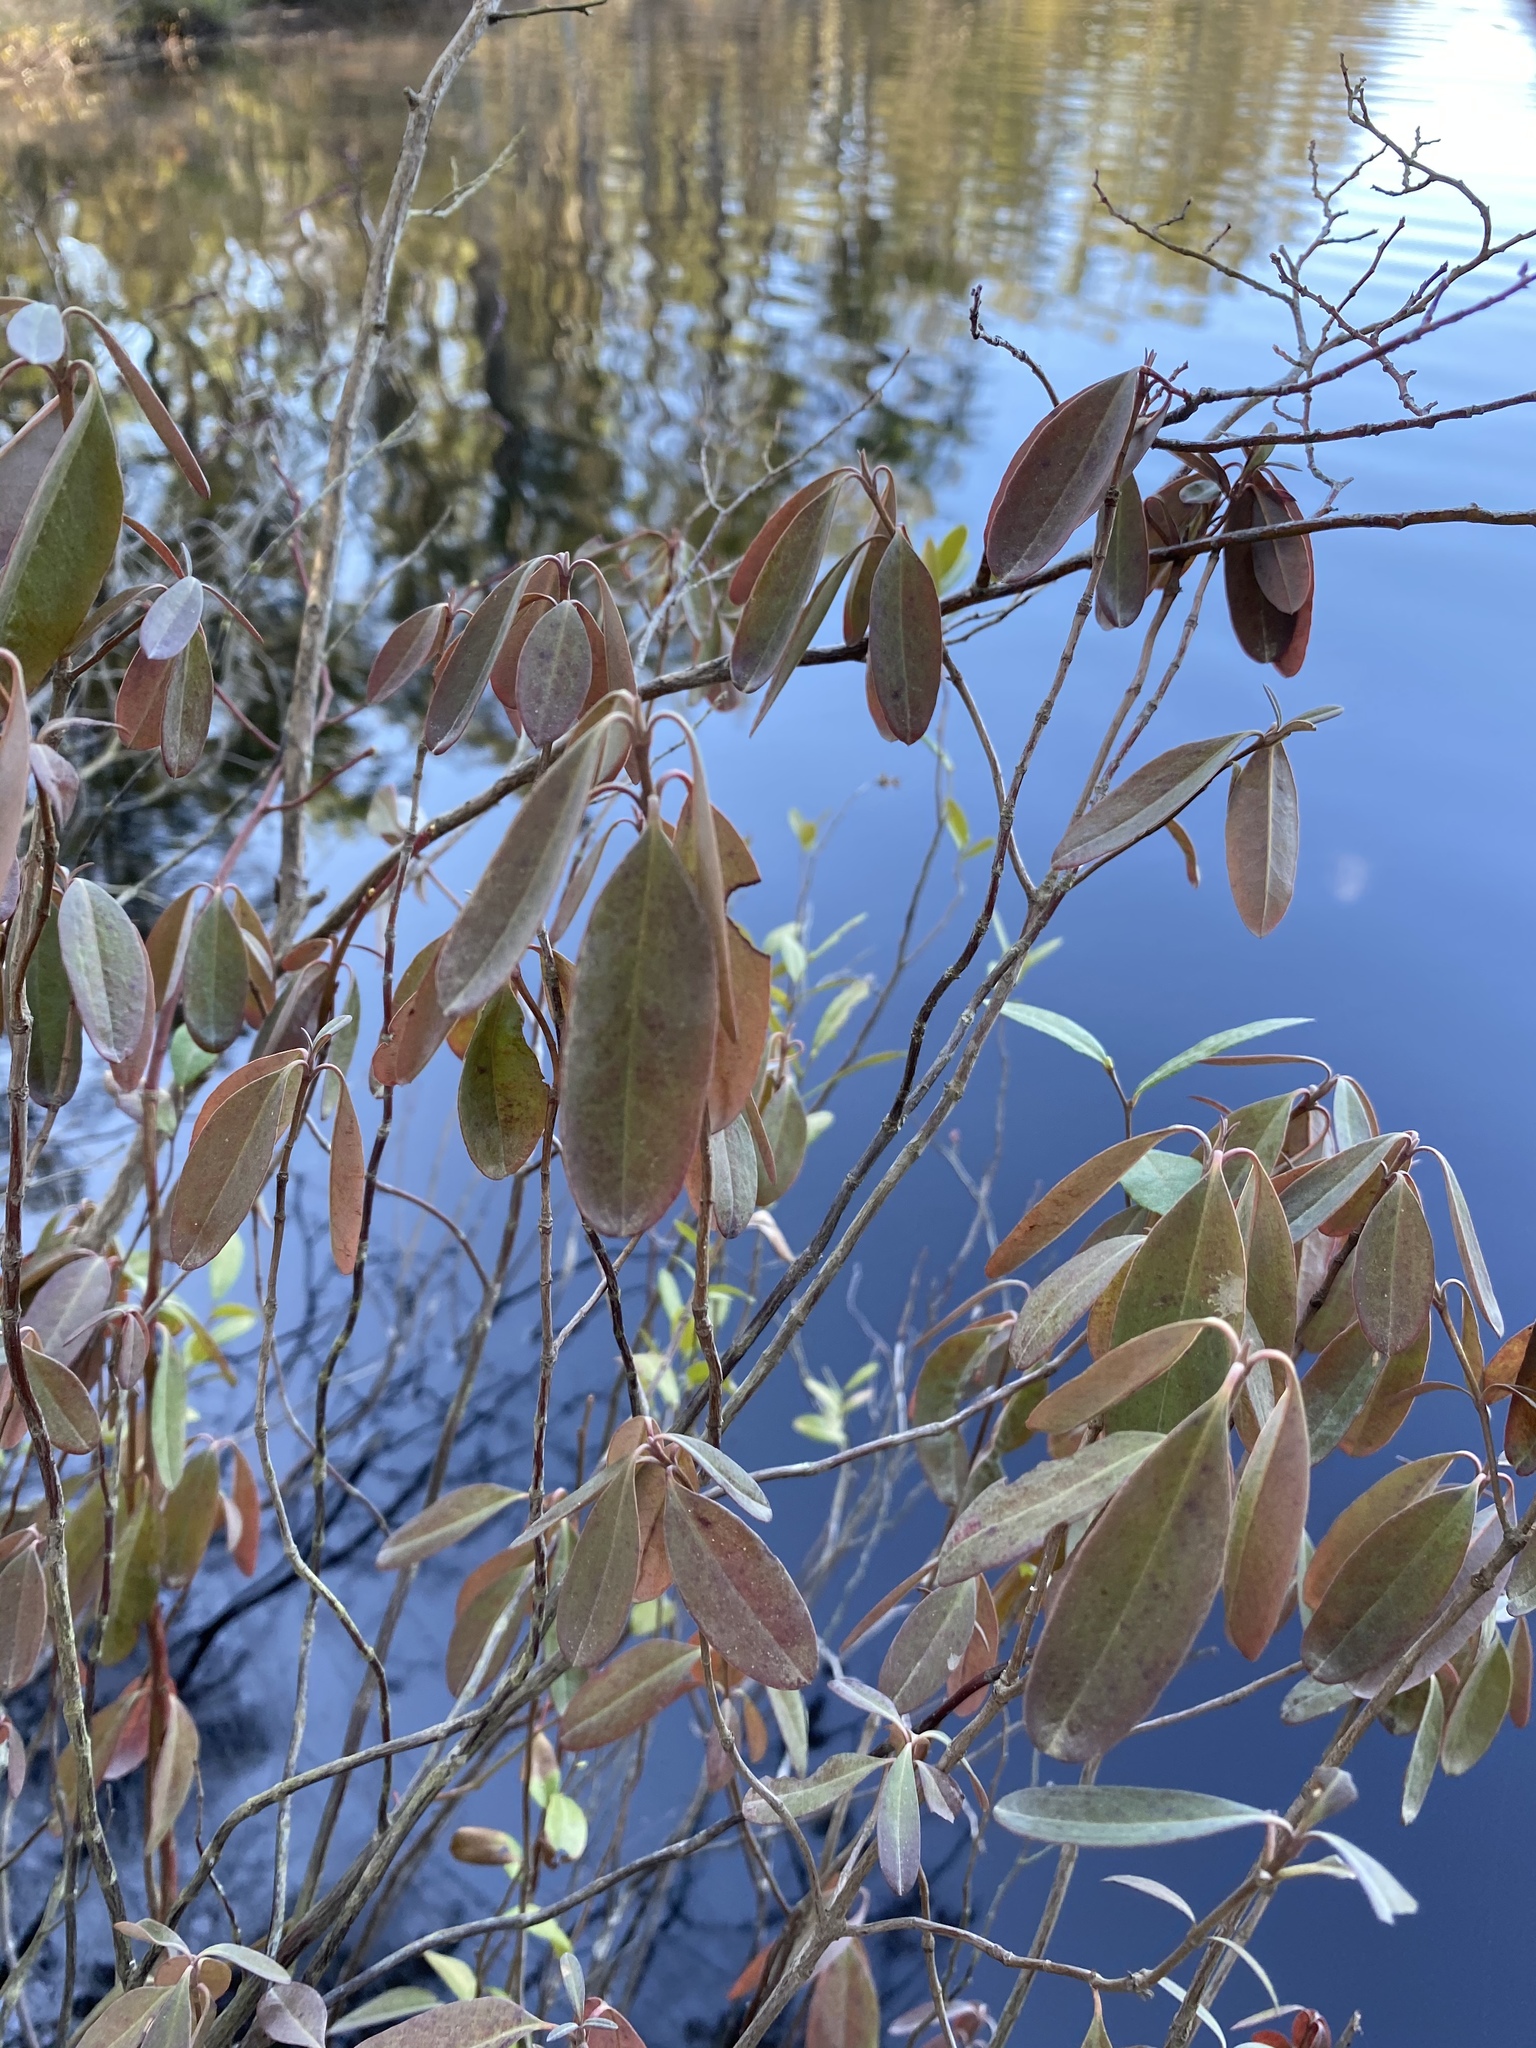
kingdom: Plantae
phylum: Tracheophyta
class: Magnoliopsida
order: Ericales
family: Ericaceae
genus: Kalmia
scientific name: Kalmia angustifolia
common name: Sheep-laurel
